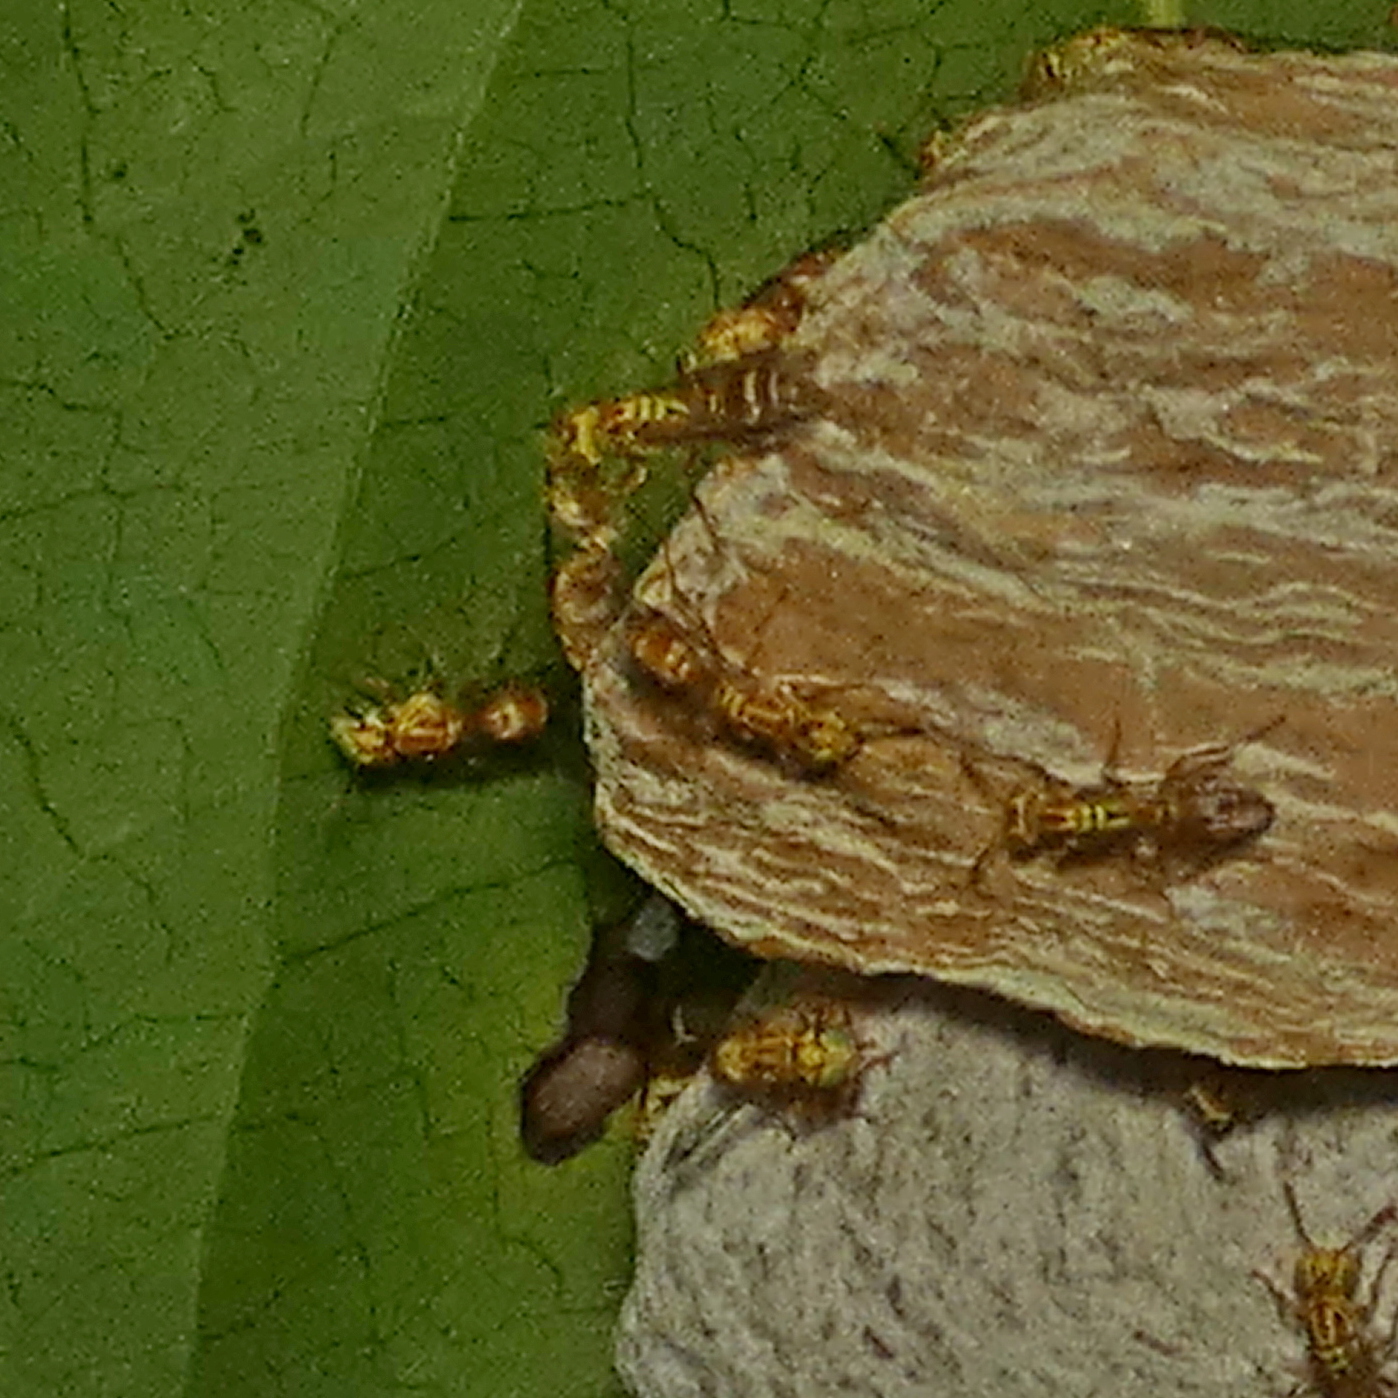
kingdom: Animalia
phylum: Arthropoda
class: Insecta
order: Hymenoptera
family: Vespidae
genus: Protopolybia
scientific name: Protopolybia potiguara
